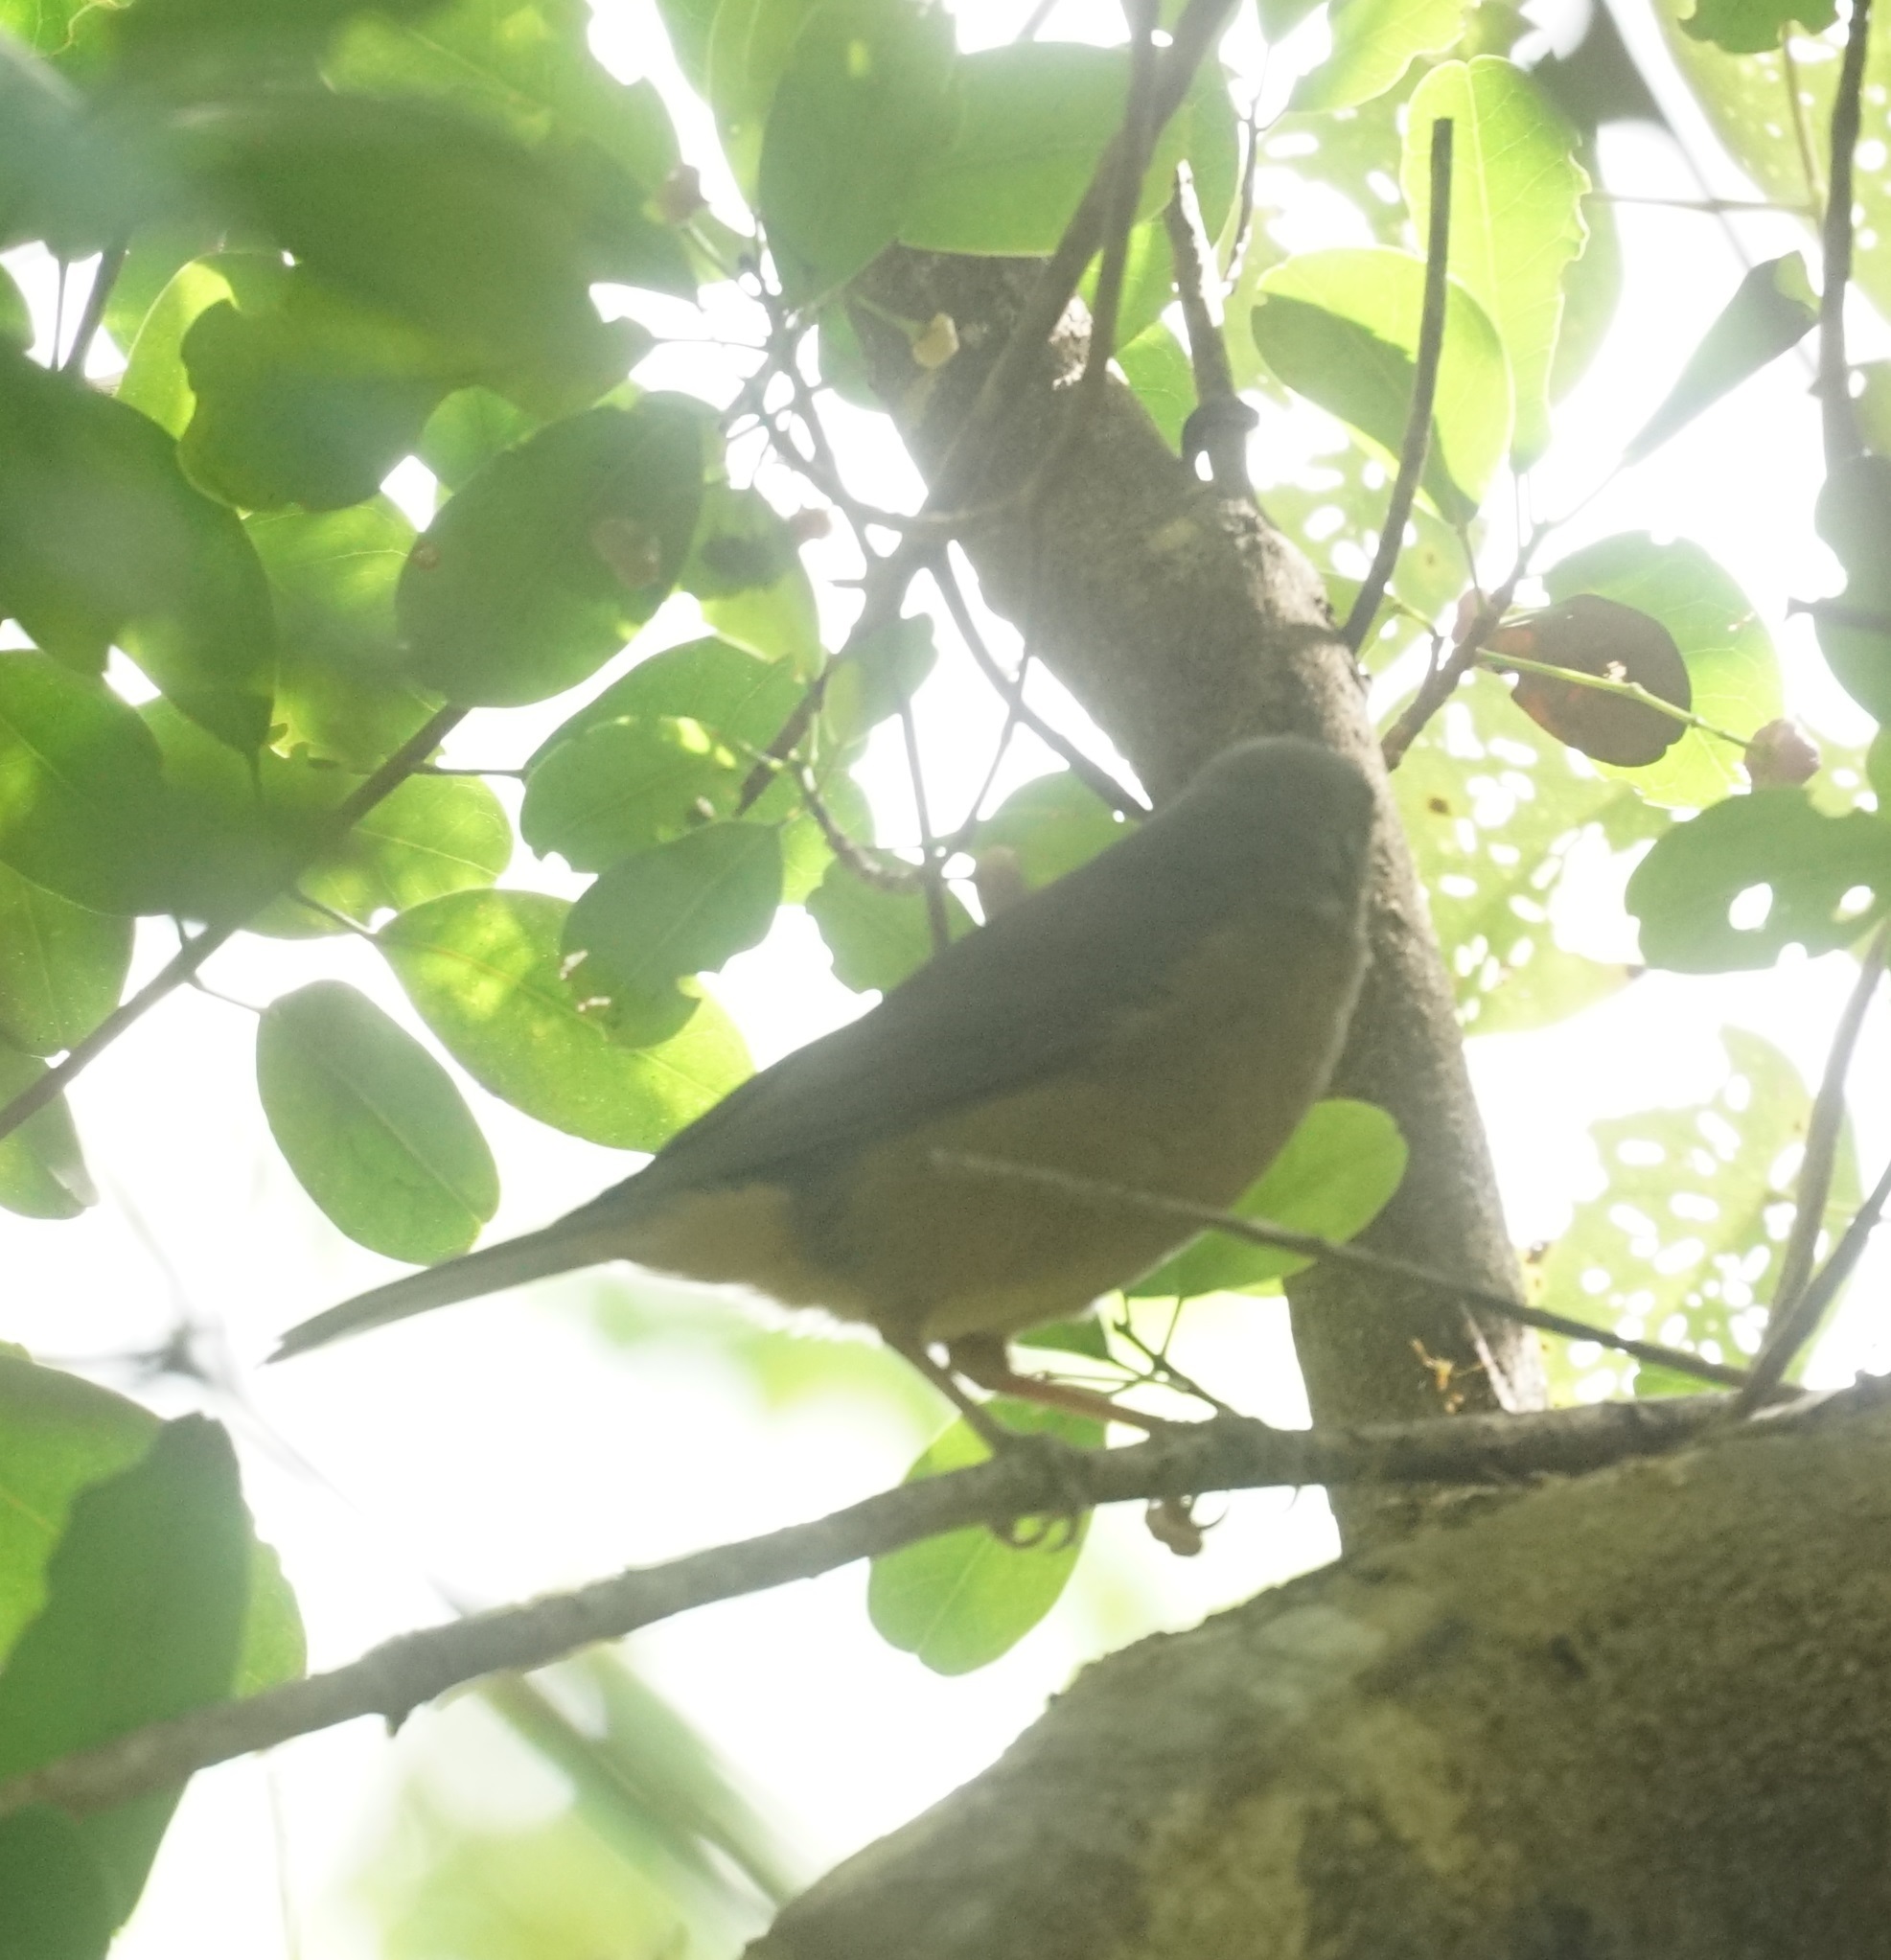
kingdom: Animalia
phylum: Chordata
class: Aves
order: Passeriformes
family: Pachycephalidae
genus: Colluricincla
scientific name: Colluricincla rufogaster
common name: Rufous shrikethrush
